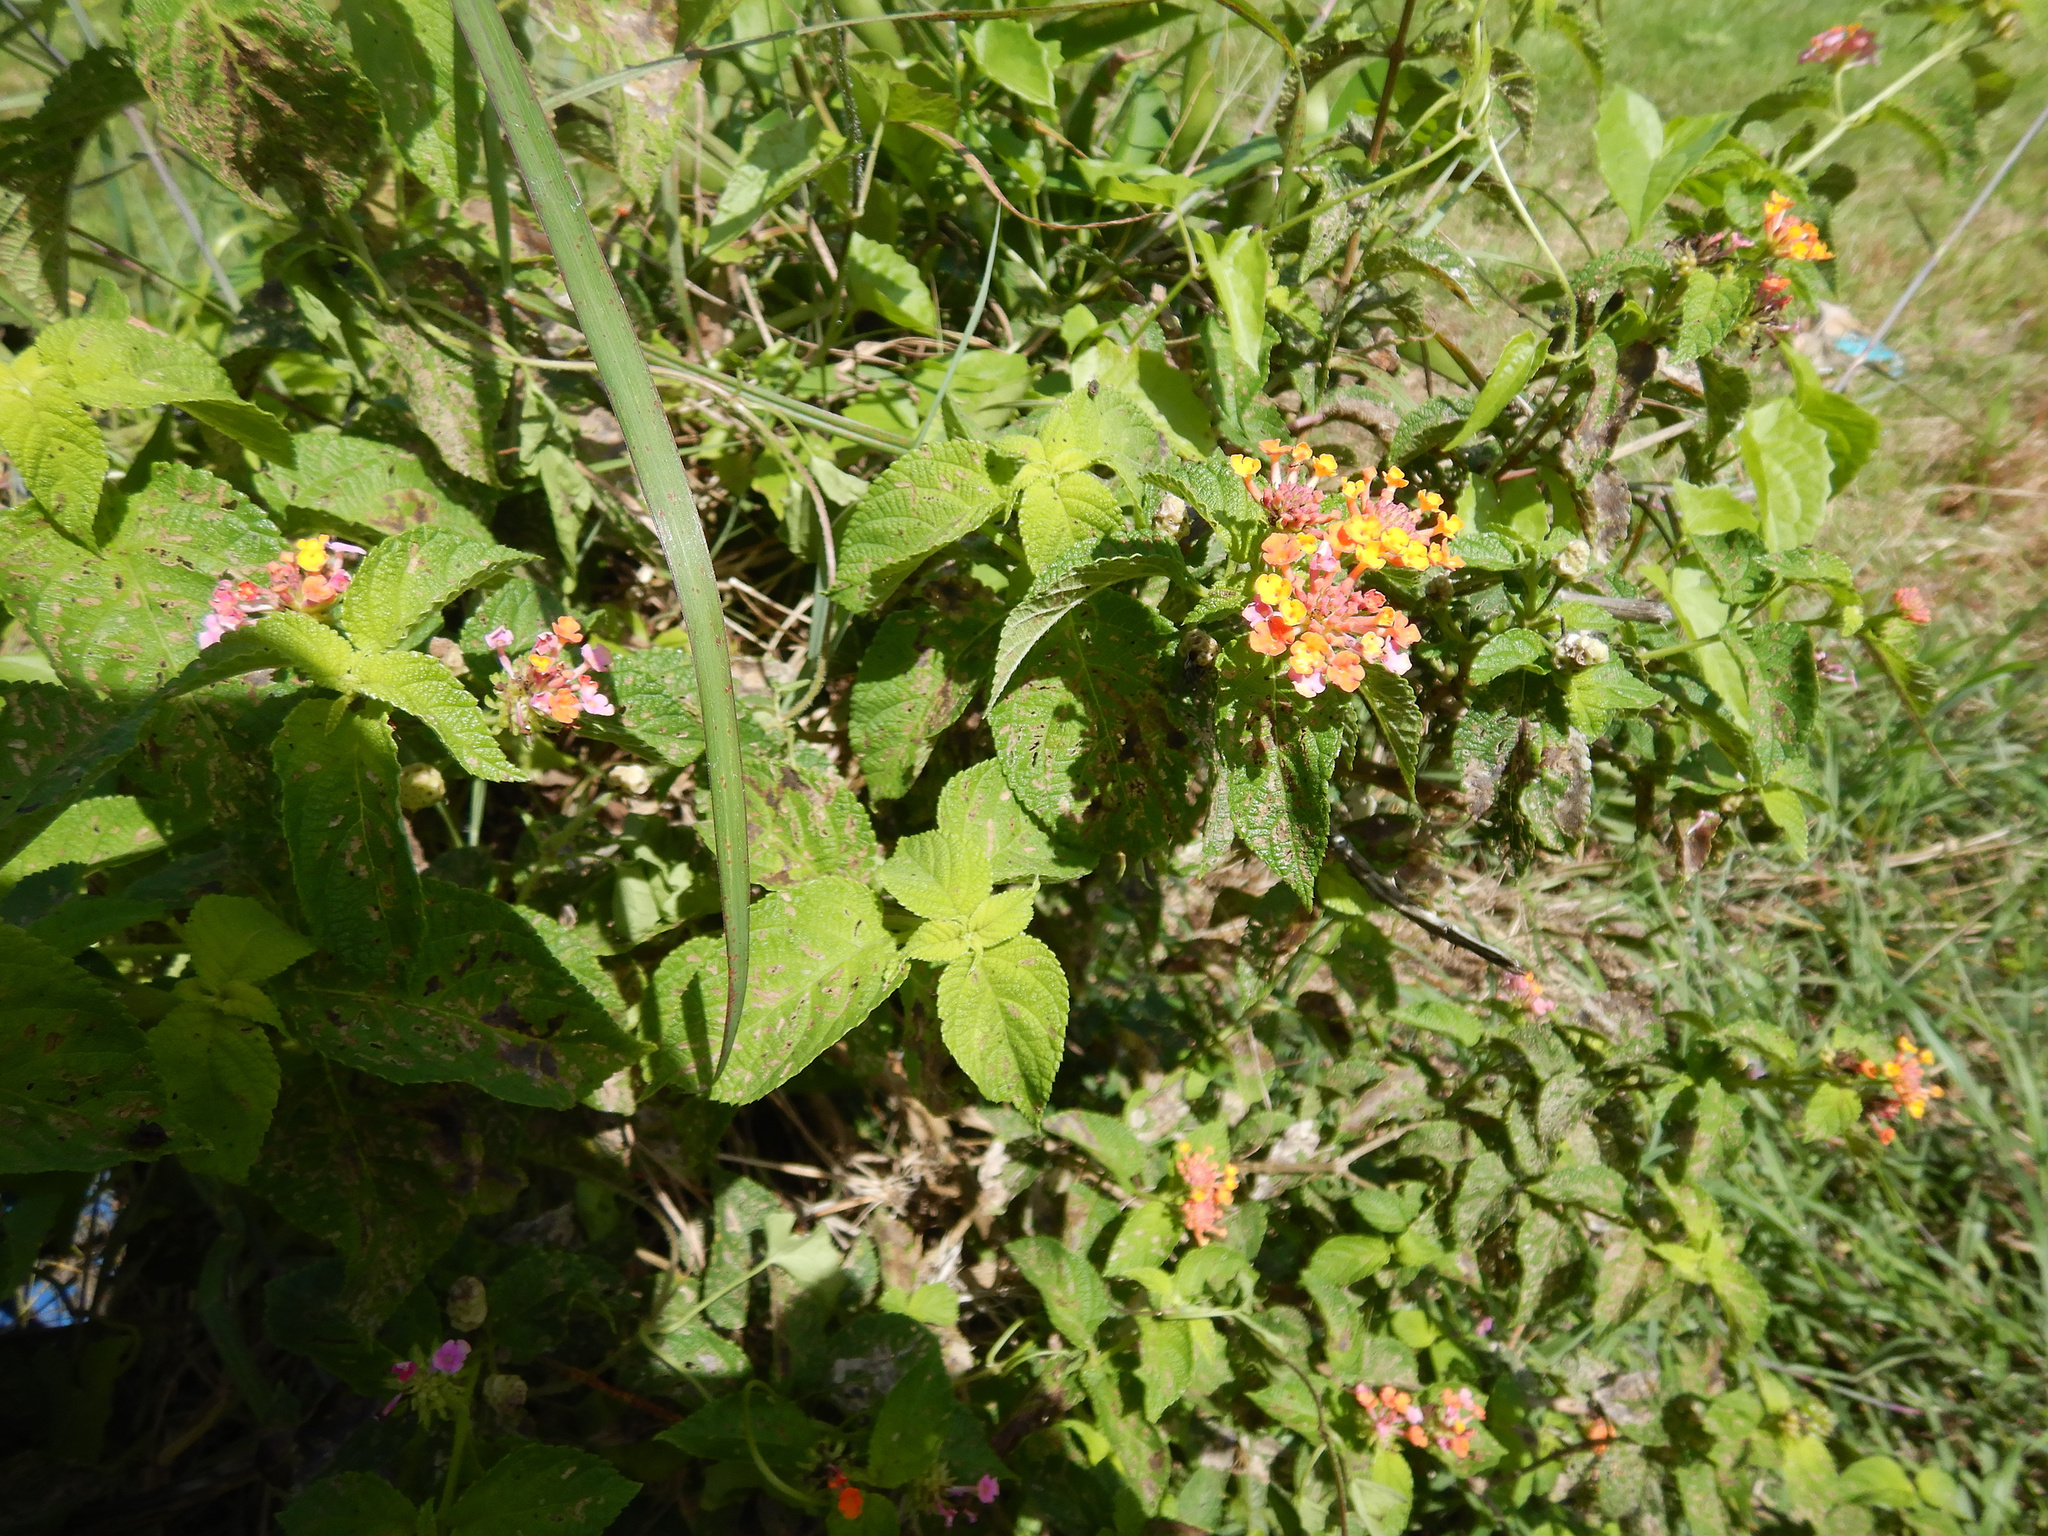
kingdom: Plantae
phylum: Tracheophyta
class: Magnoliopsida
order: Lamiales
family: Verbenaceae
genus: Lantana
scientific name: Lantana camara
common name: Lantana
